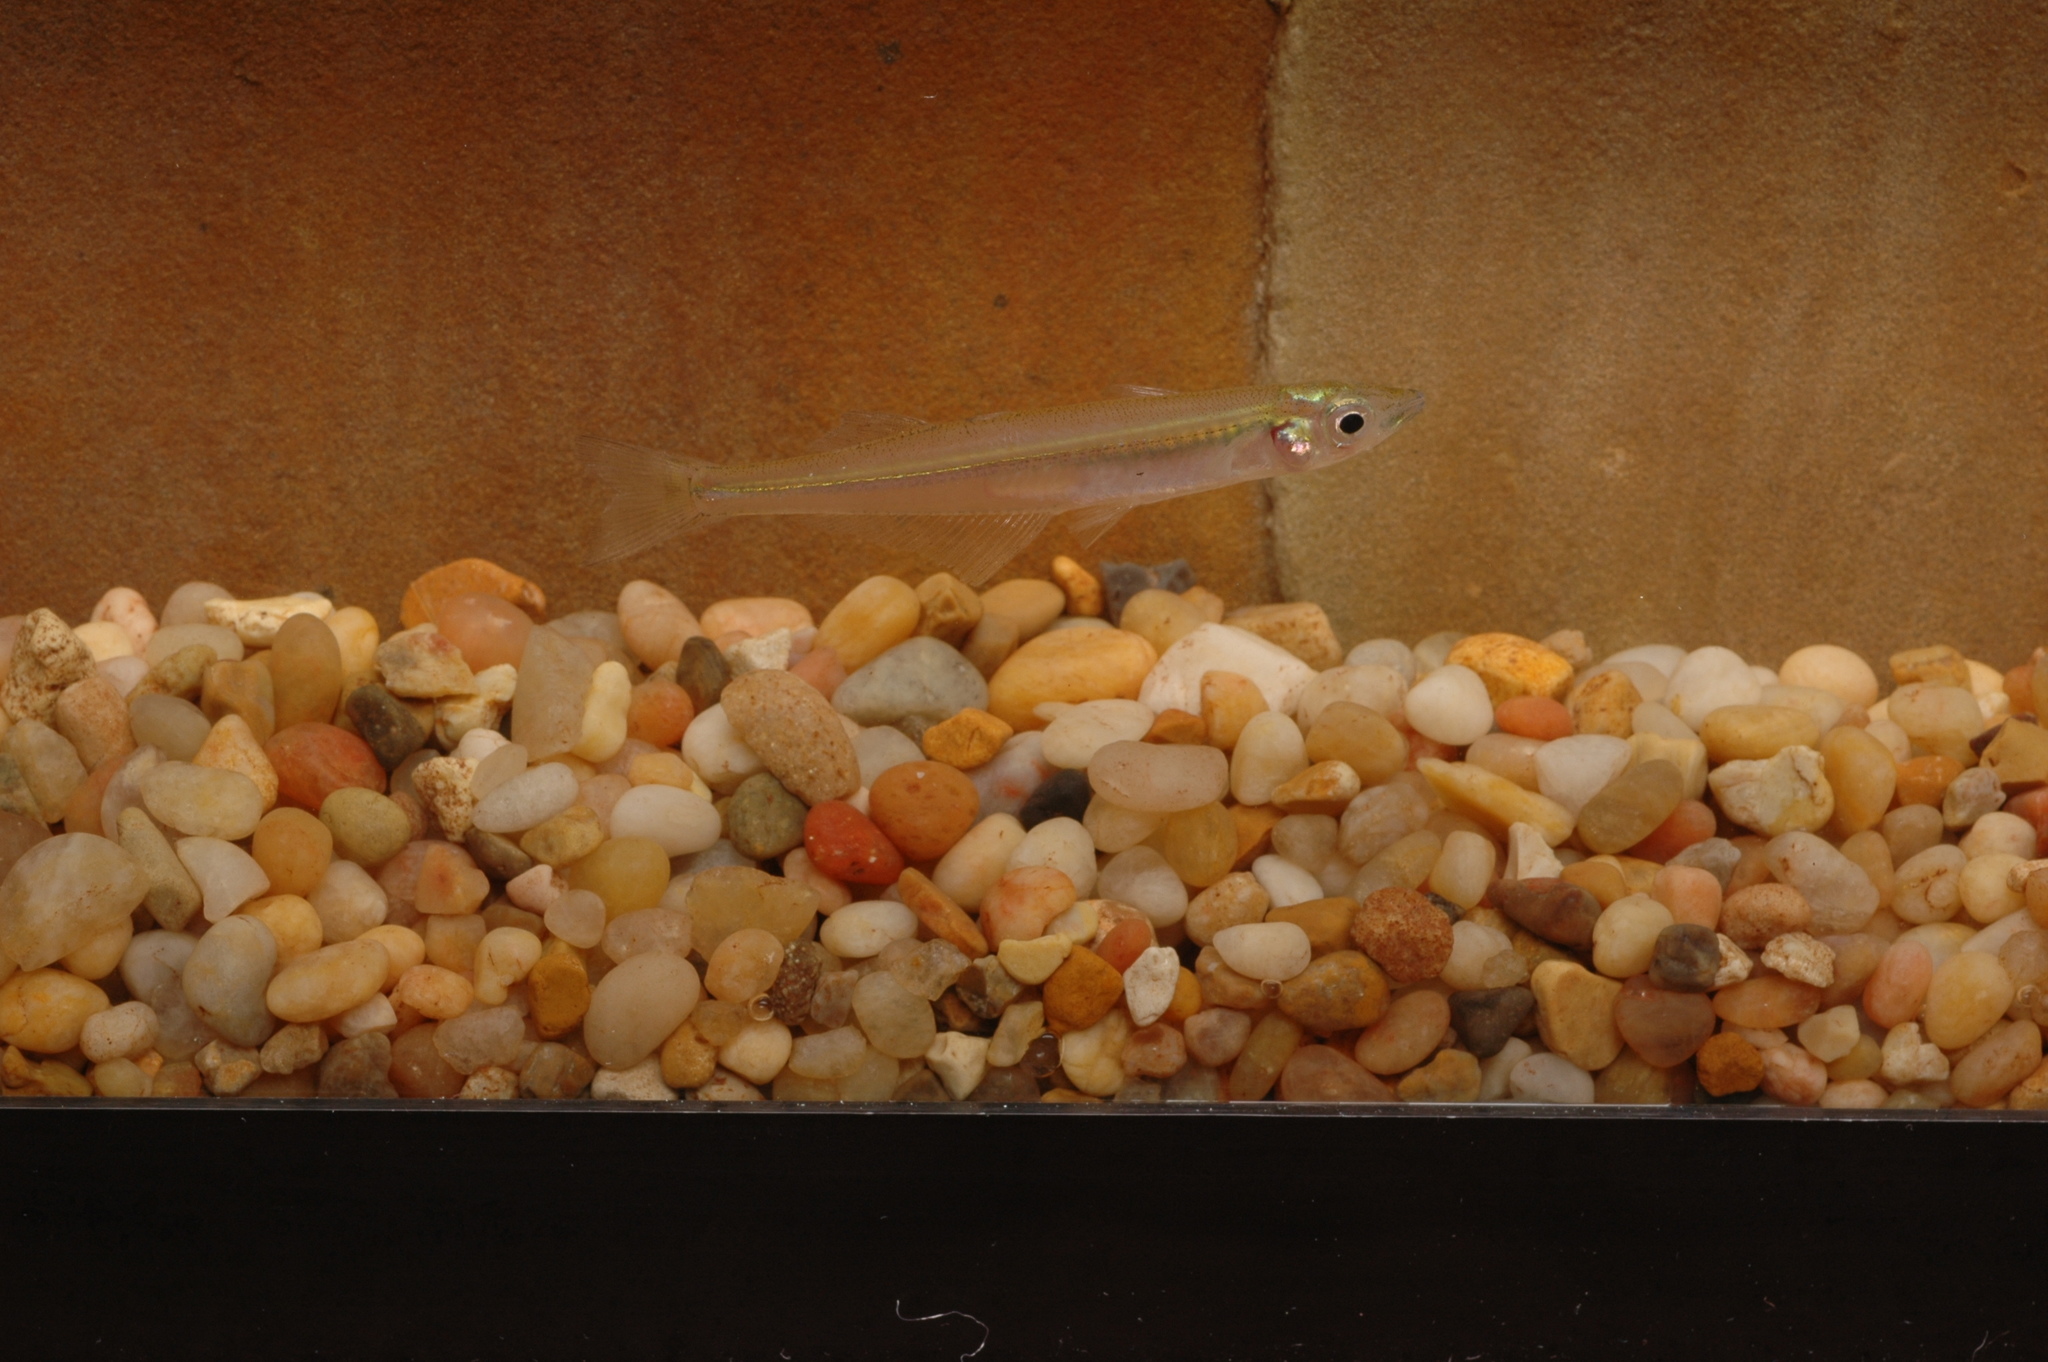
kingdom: Animalia
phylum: Chordata
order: Atheriniformes
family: Atherinopsidae
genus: Labidesthes
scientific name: Labidesthes sicculus
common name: Brook silverside
